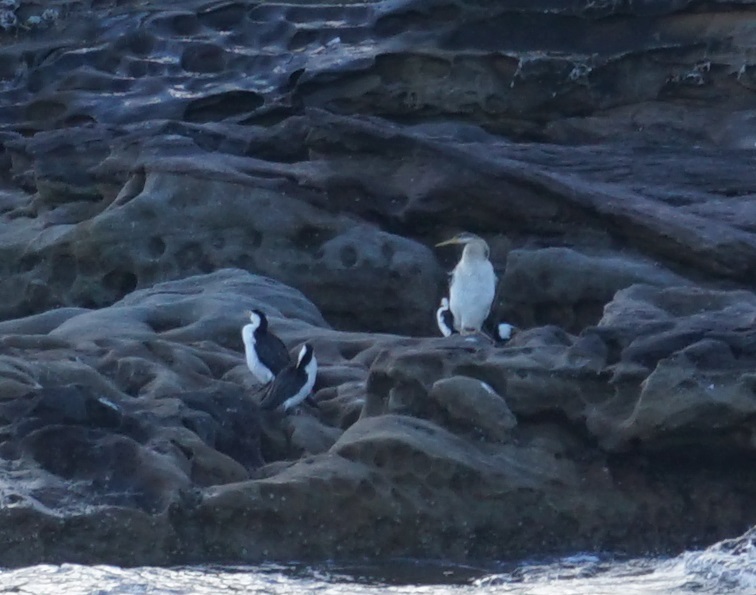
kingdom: Animalia
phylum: Chordata
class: Aves
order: Suliformes
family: Phalacrocoracidae
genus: Microcarbo
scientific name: Microcarbo melanoleucos
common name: Little pied cormorant
